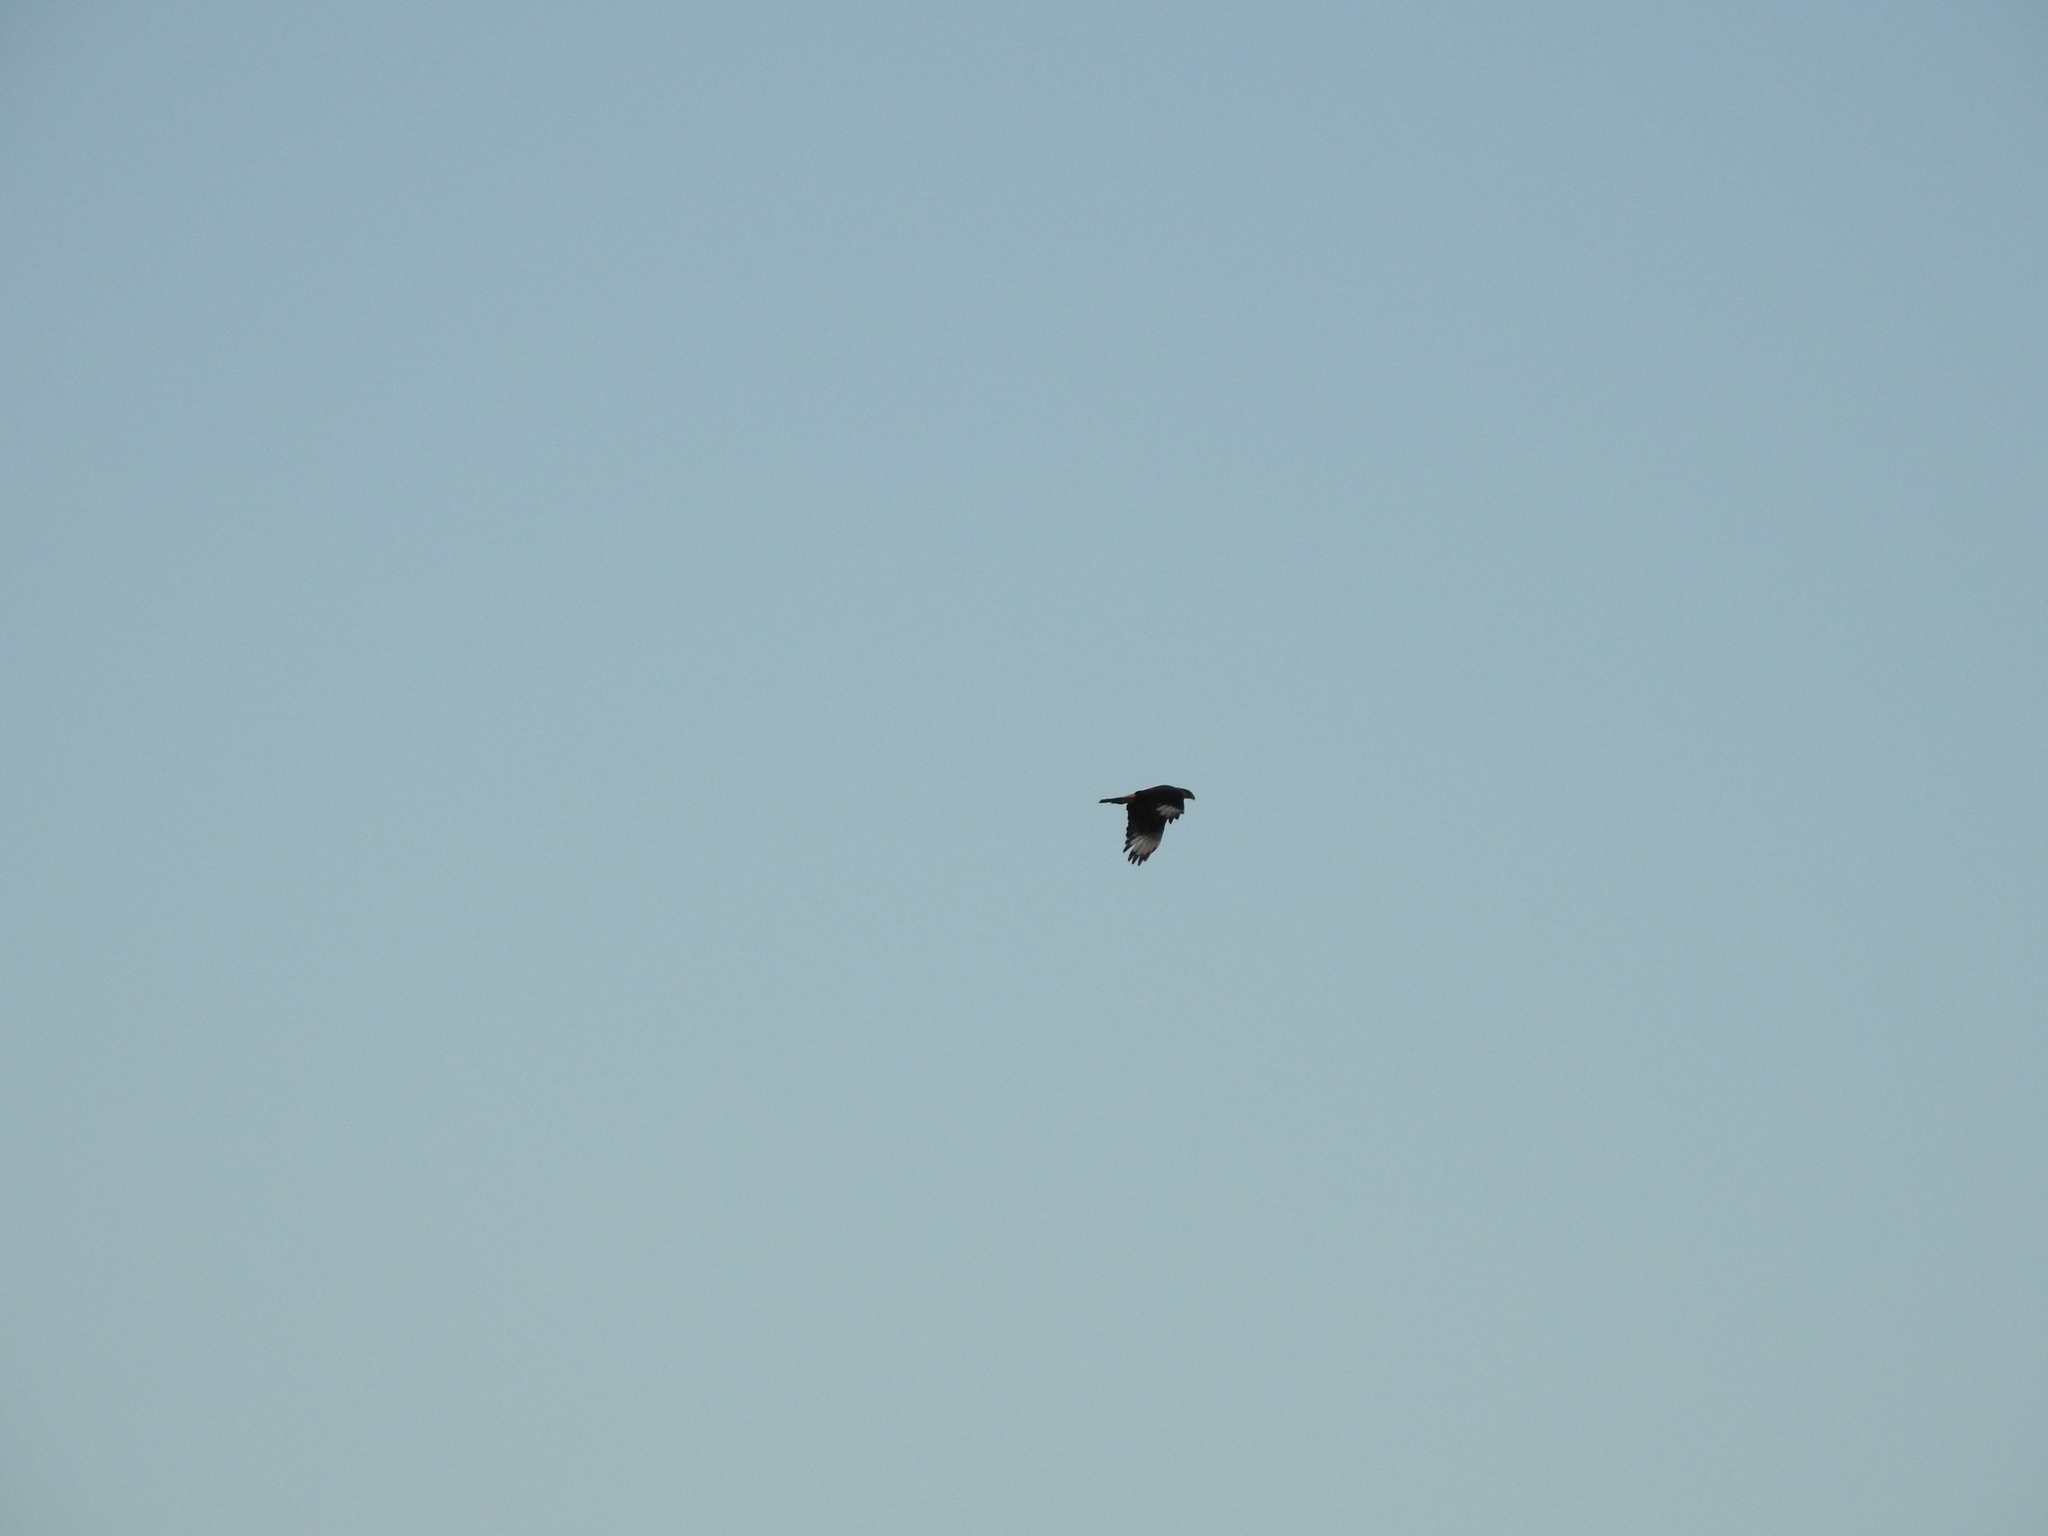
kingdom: Animalia
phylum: Chordata
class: Aves
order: Falconiformes
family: Falconidae
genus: Caracara
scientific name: Caracara plancus
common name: Southern caracara
